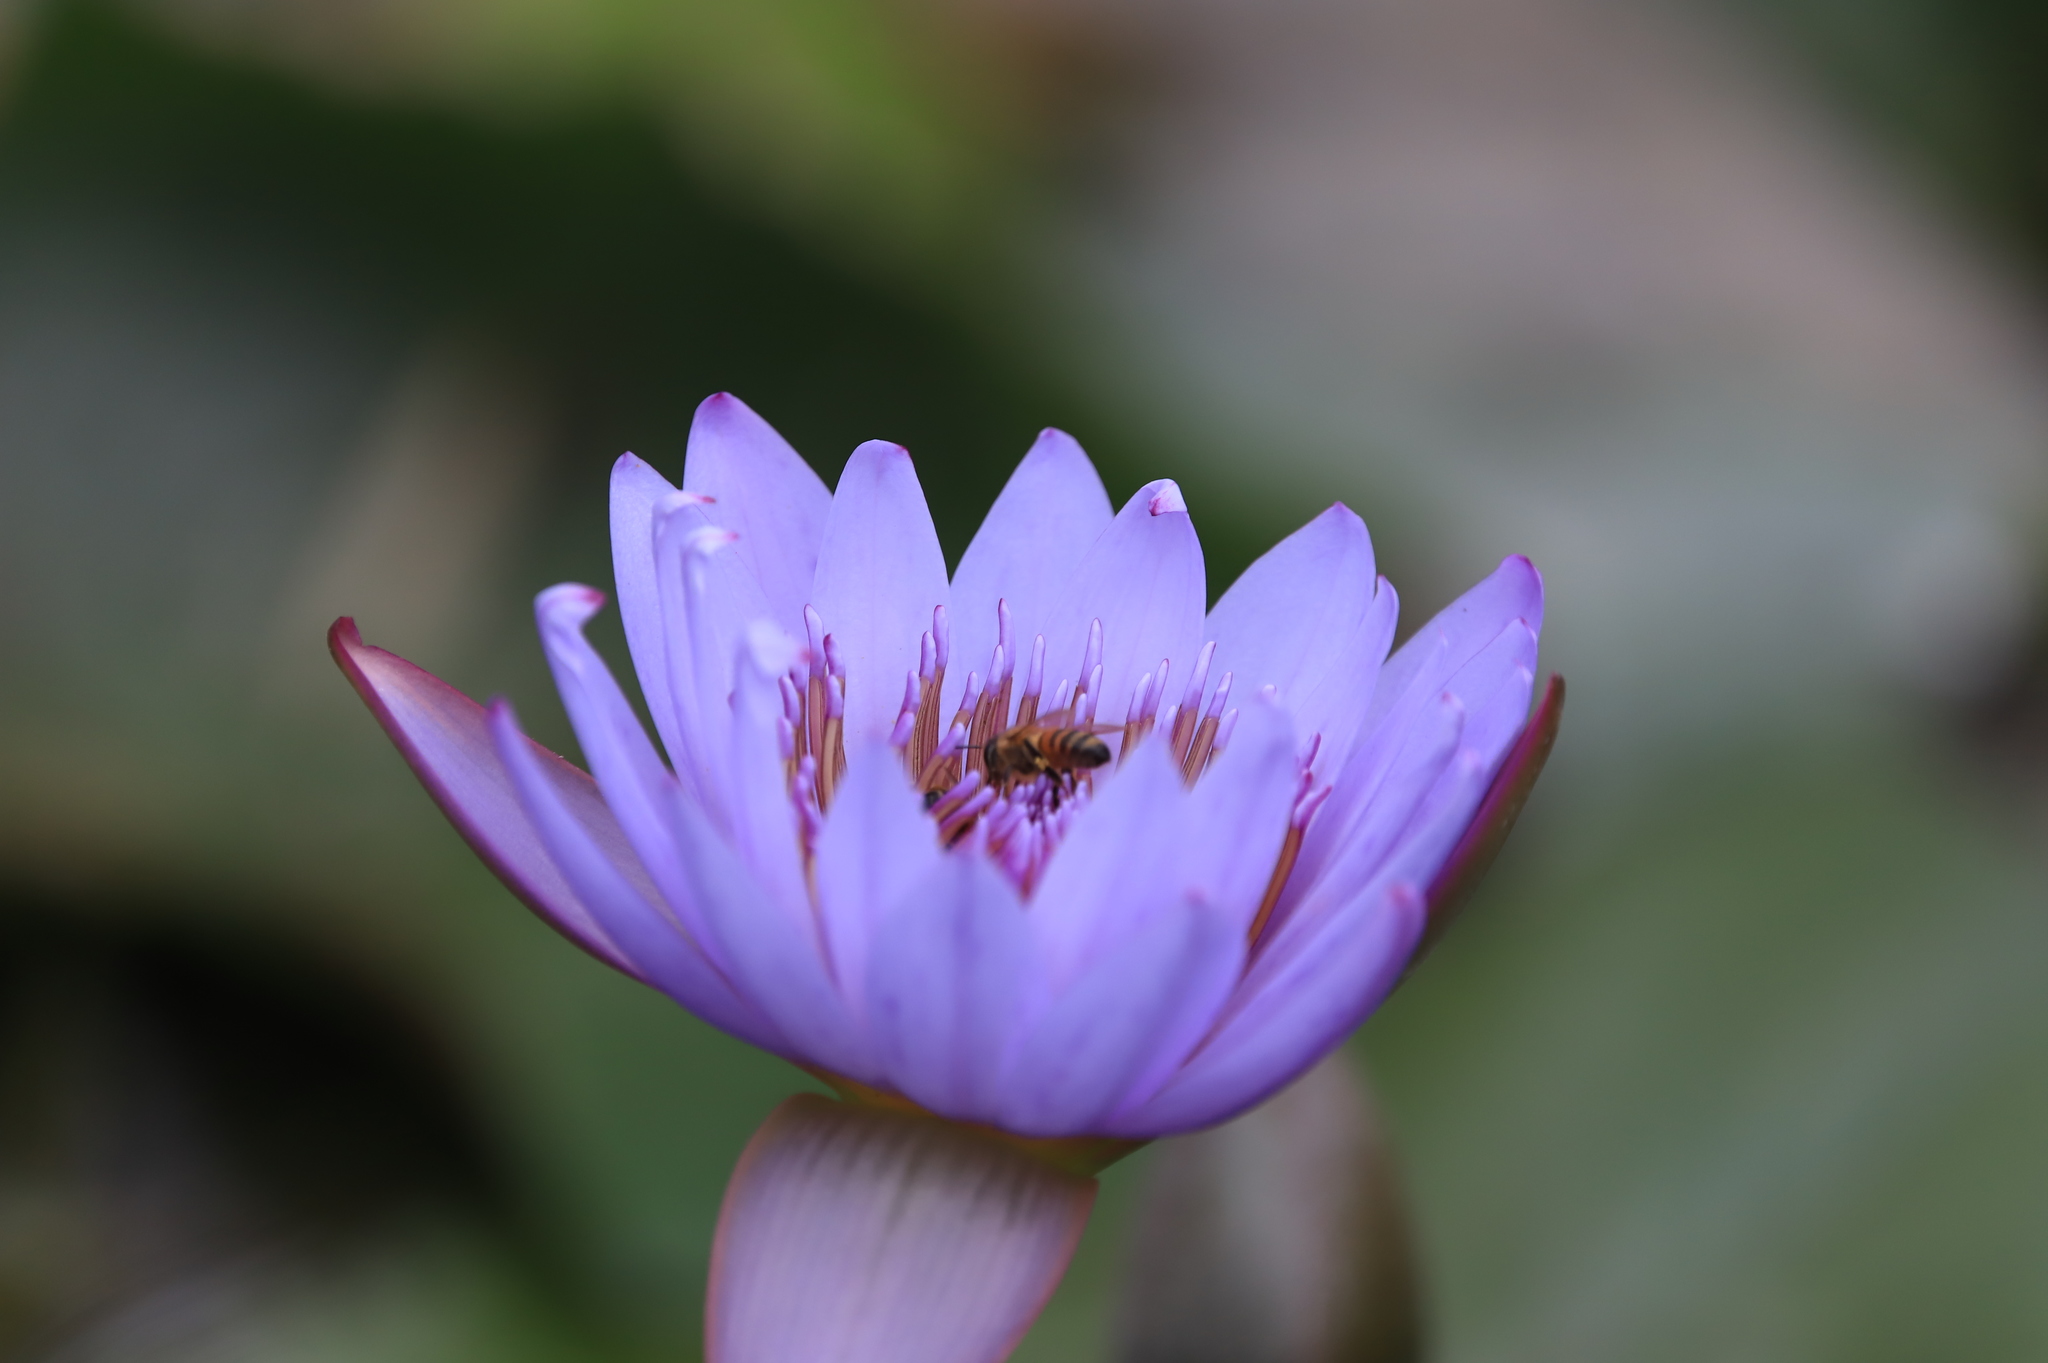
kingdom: Animalia
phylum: Arthropoda
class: Insecta
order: Hymenoptera
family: Apidae
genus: Apis
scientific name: Apis mellifera
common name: Honey bee
